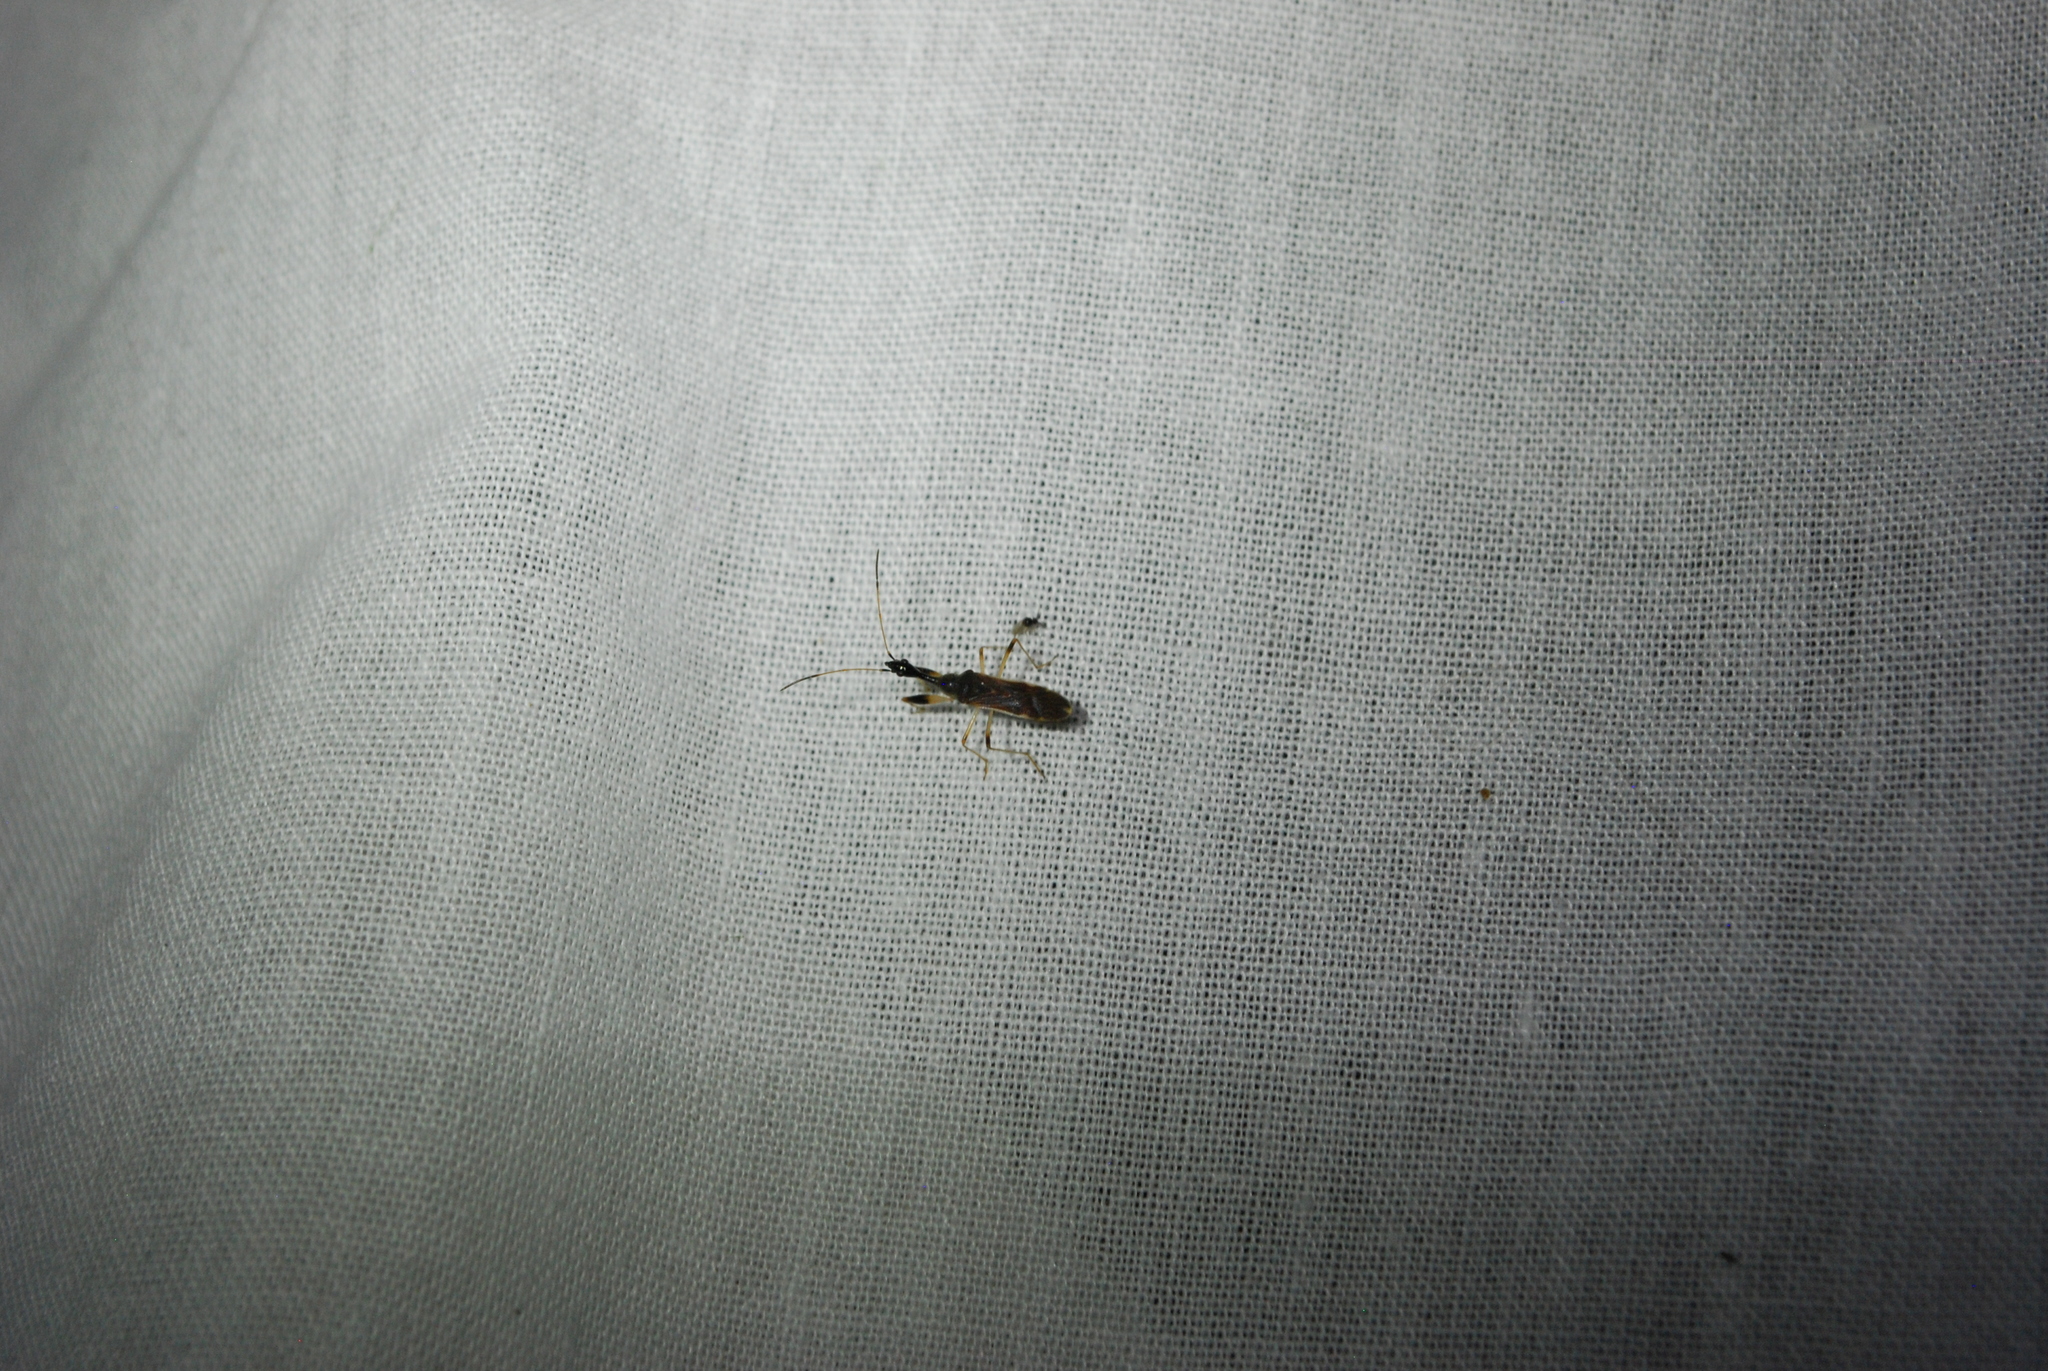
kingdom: Animalia
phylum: Arthropoda
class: Insecta
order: Hemiptera
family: Rhyparochromidae
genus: Myodocha
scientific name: Myodocha serripes
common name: Long-necked seed bug
